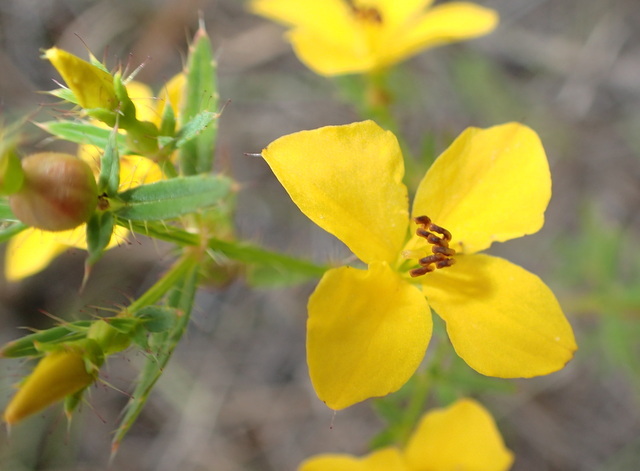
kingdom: Plantae
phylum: Tracheophyta
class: Magnoliopsida
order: Myrtales
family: Melastomataceae
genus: Rhexia
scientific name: Rhexia lutea
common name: Golden meadow-beauty
